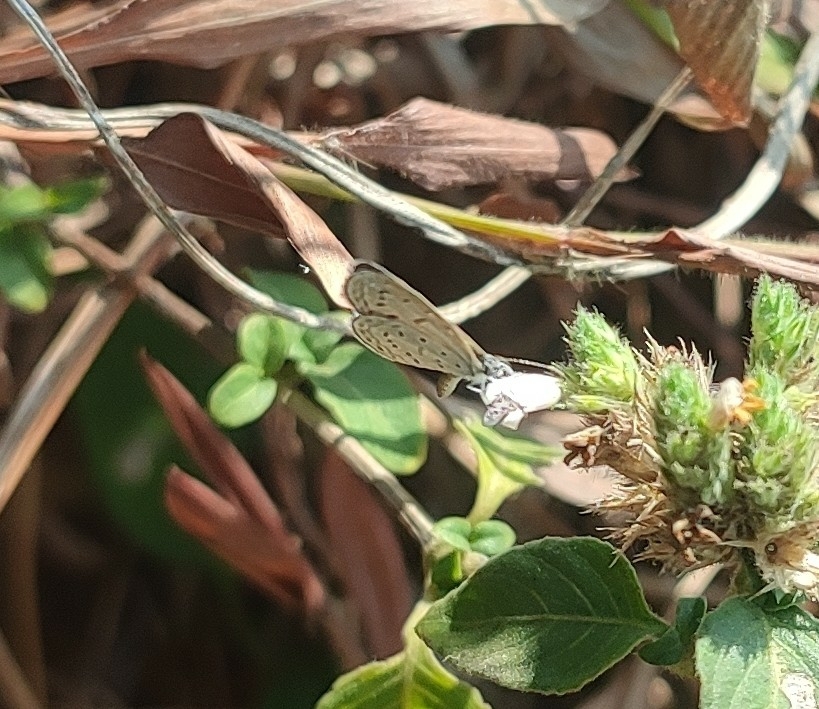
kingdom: Animalia
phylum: Arthropoda
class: Insecta
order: Lepidoptera
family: Lycaenidae
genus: Zizula
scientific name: Zizula hylax
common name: Gaika blue
